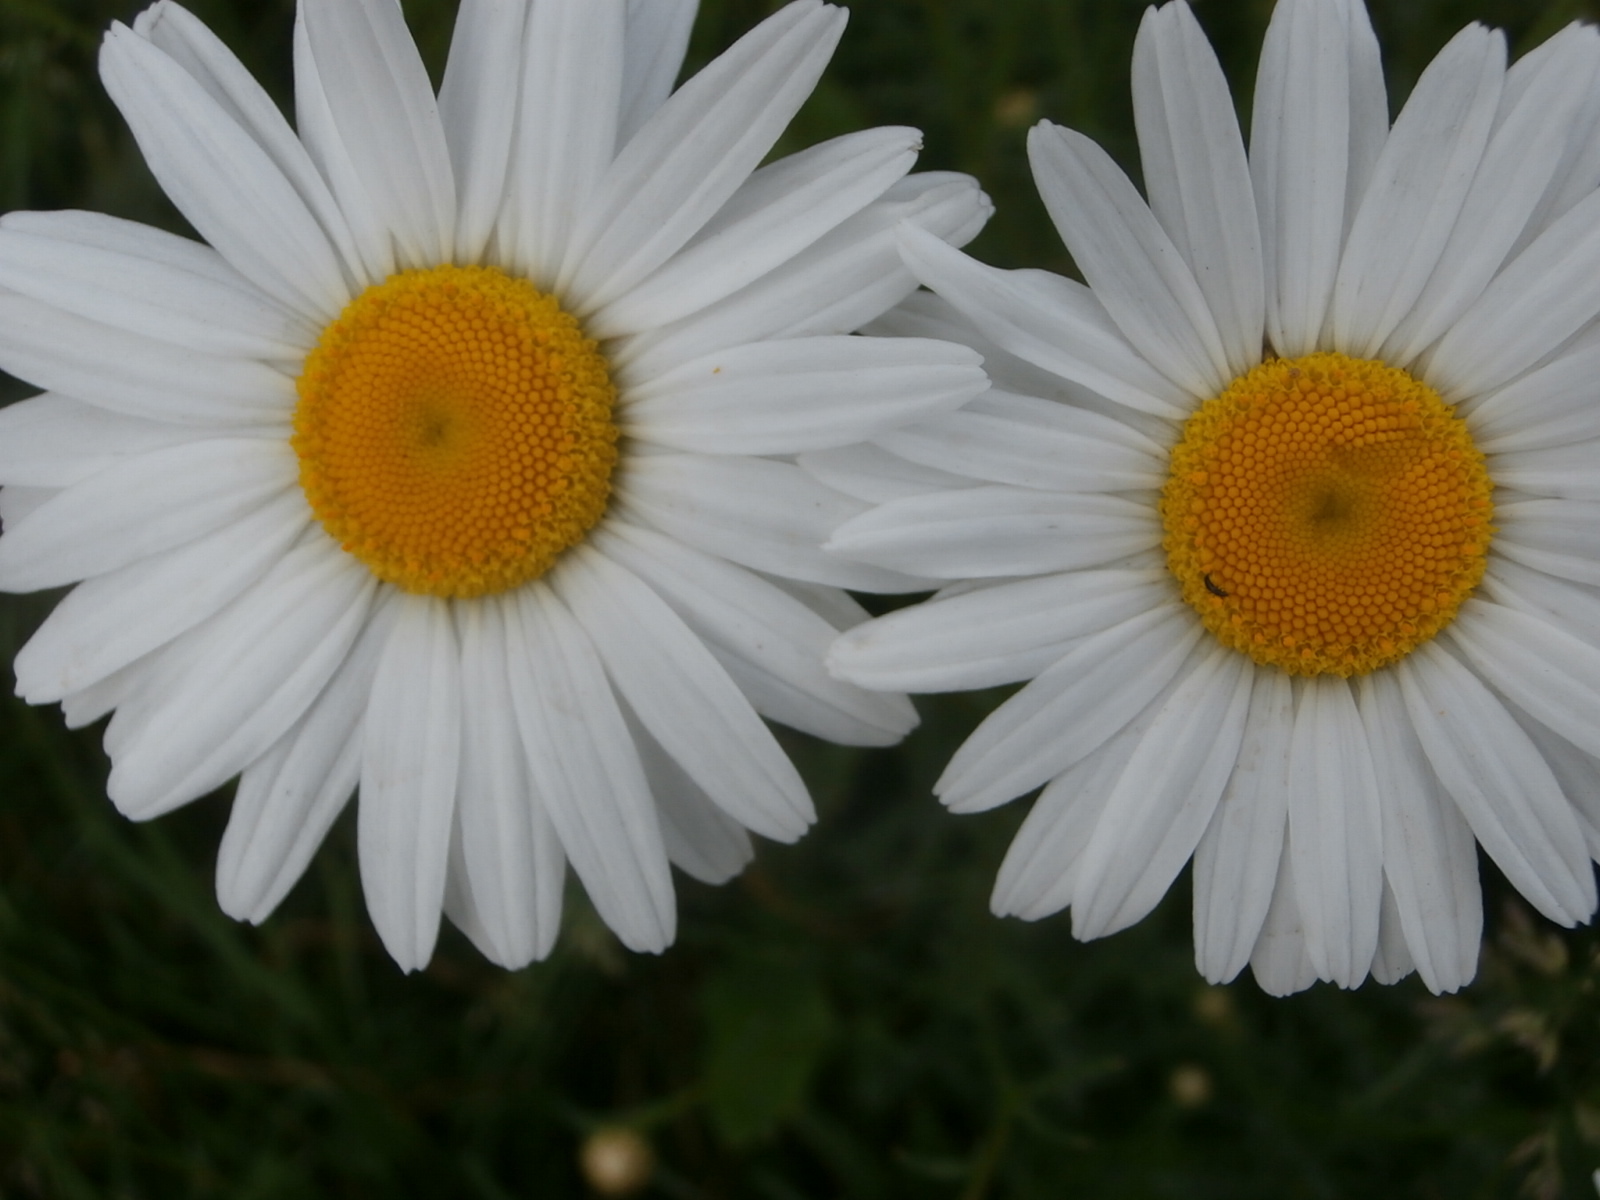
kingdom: Plantae
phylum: Tracheophyta
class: Magnoliopsida
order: Asterales
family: Asteraceae
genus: Leucanthemum
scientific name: Leucanthemum vulgare
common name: Oxeye daisy
